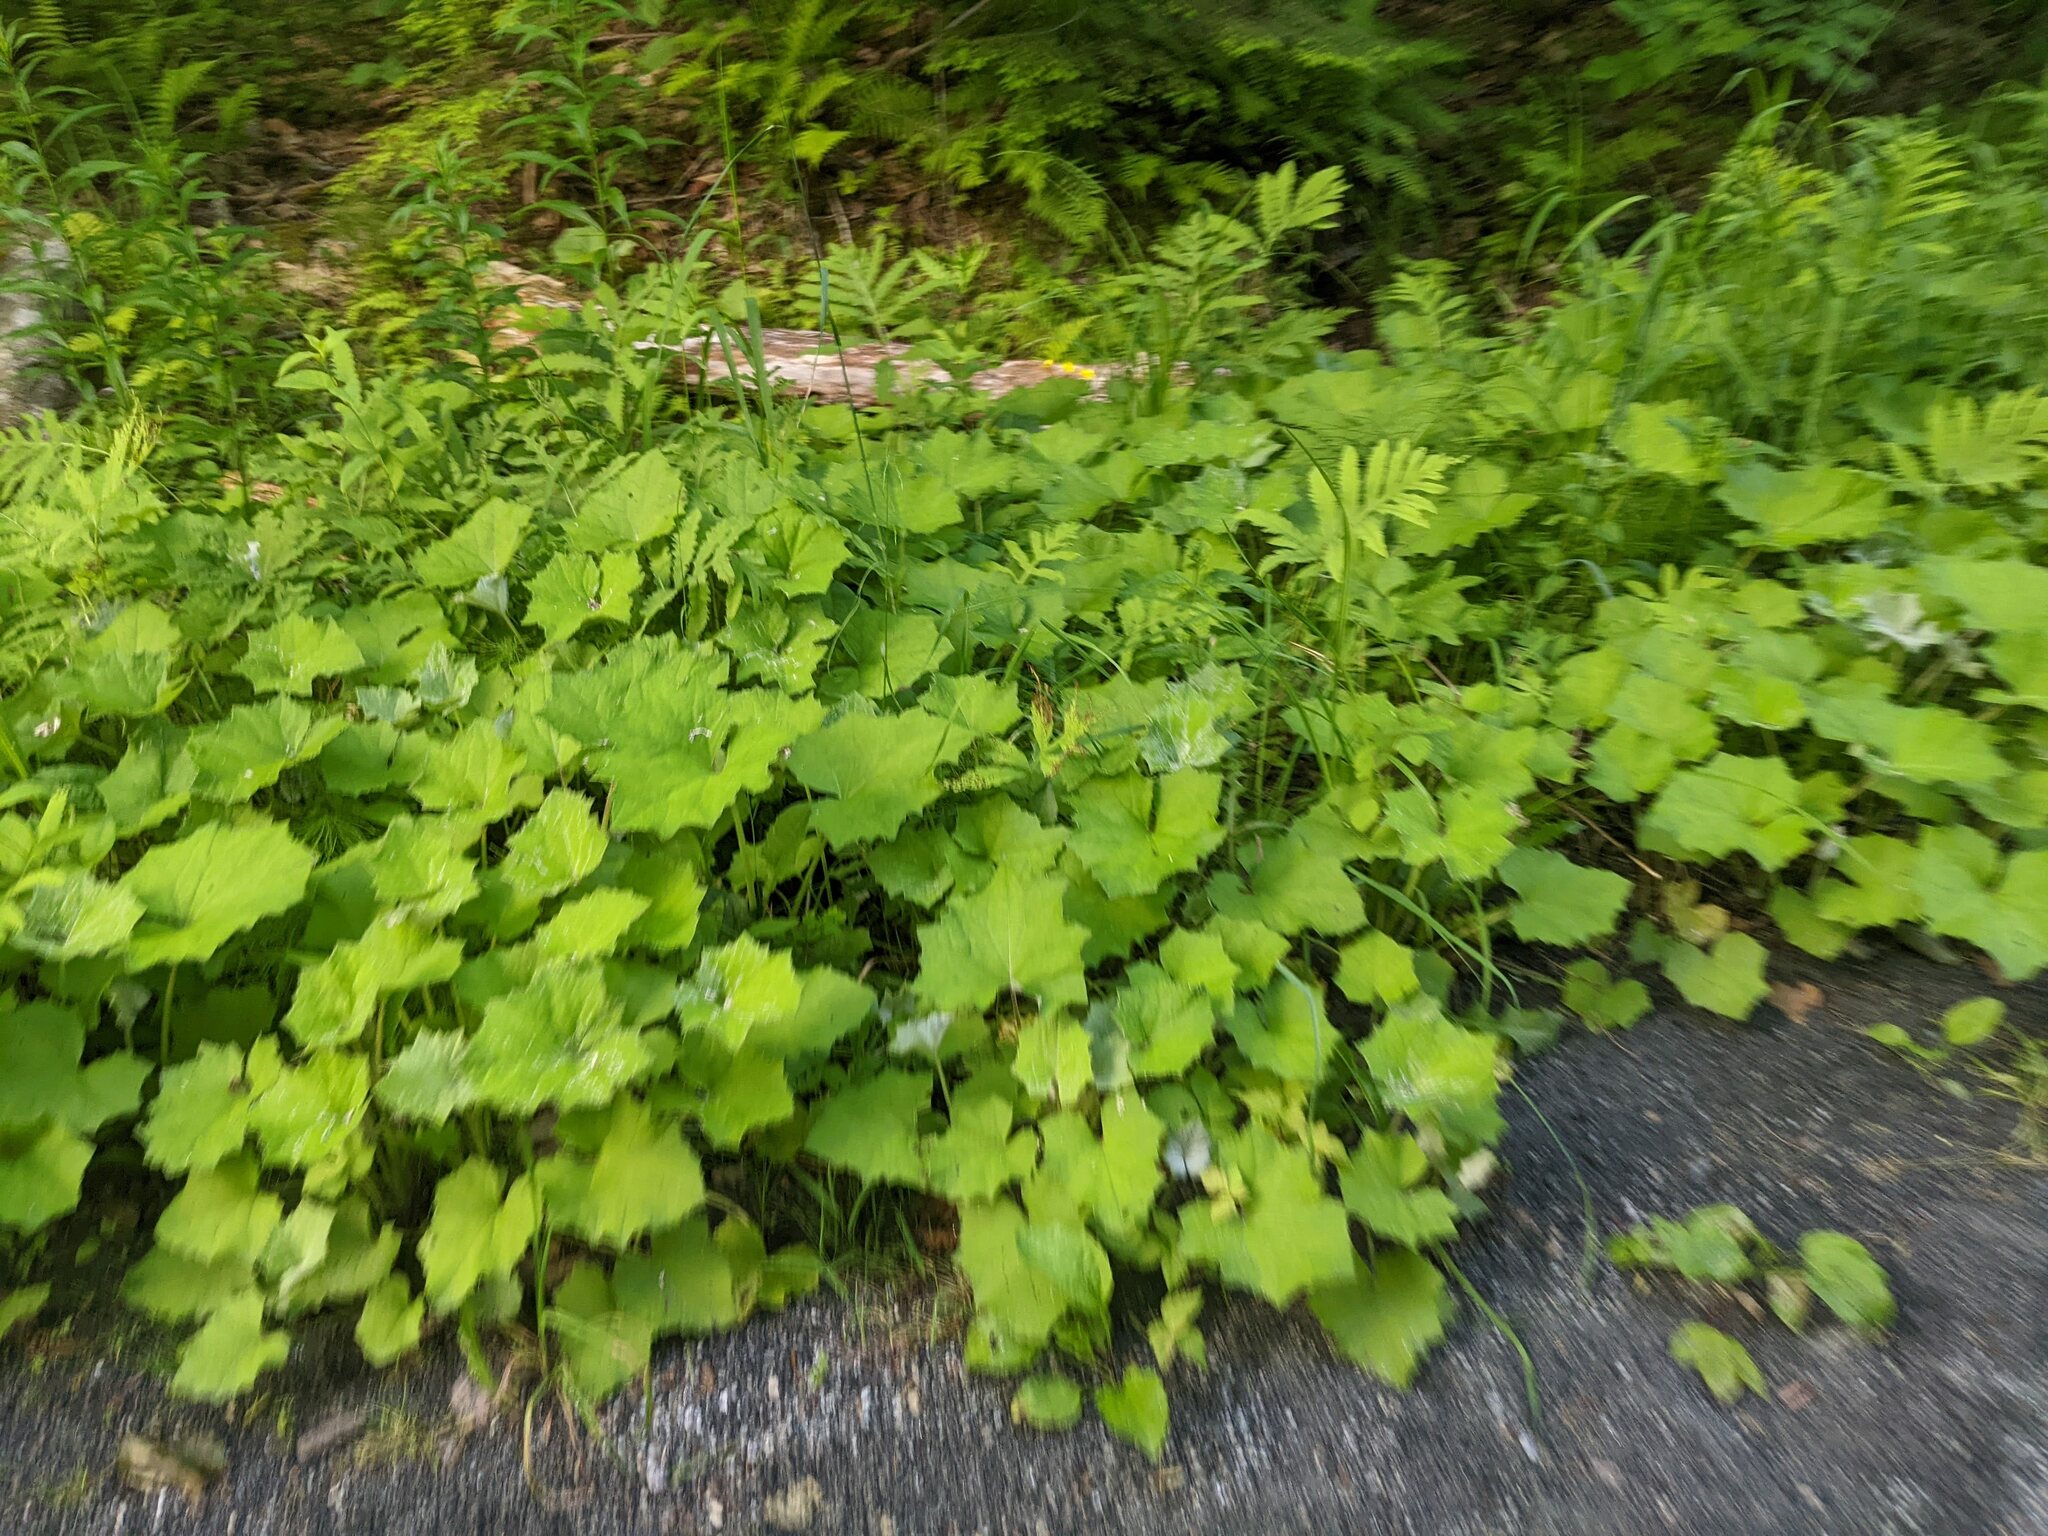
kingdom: Plantae
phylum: Tracheophyta
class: Magnoliopsida
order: Asterales
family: Asteraceae
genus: Tussilago
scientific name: Tussilago farfara
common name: Coltsfoot
